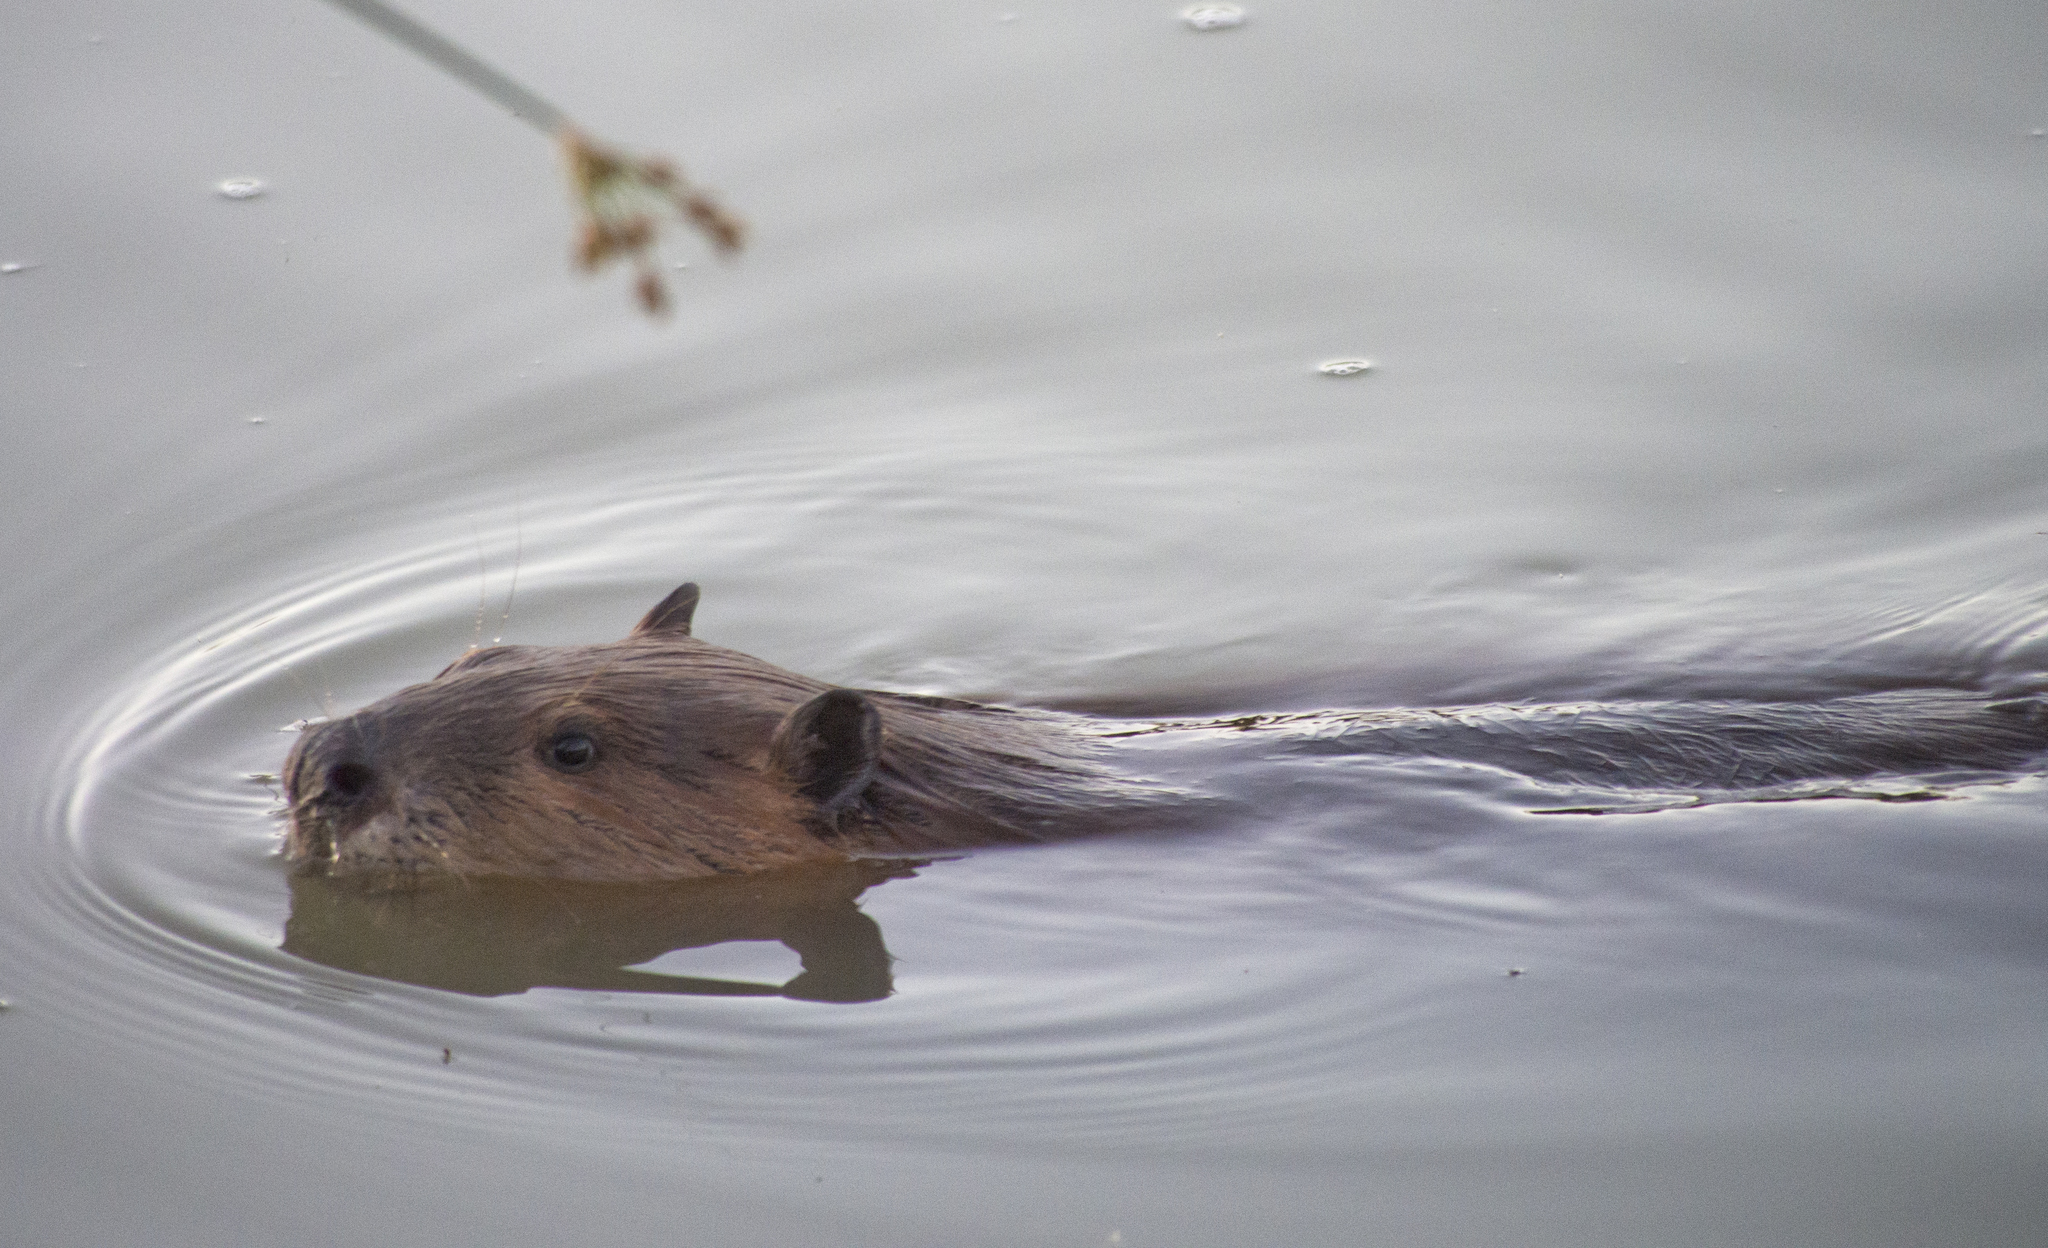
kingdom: Animalia
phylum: Chordata
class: Mammalia
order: Rodentia
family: Castoridae
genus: Castor
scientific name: Castor canadensis
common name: American beaver
